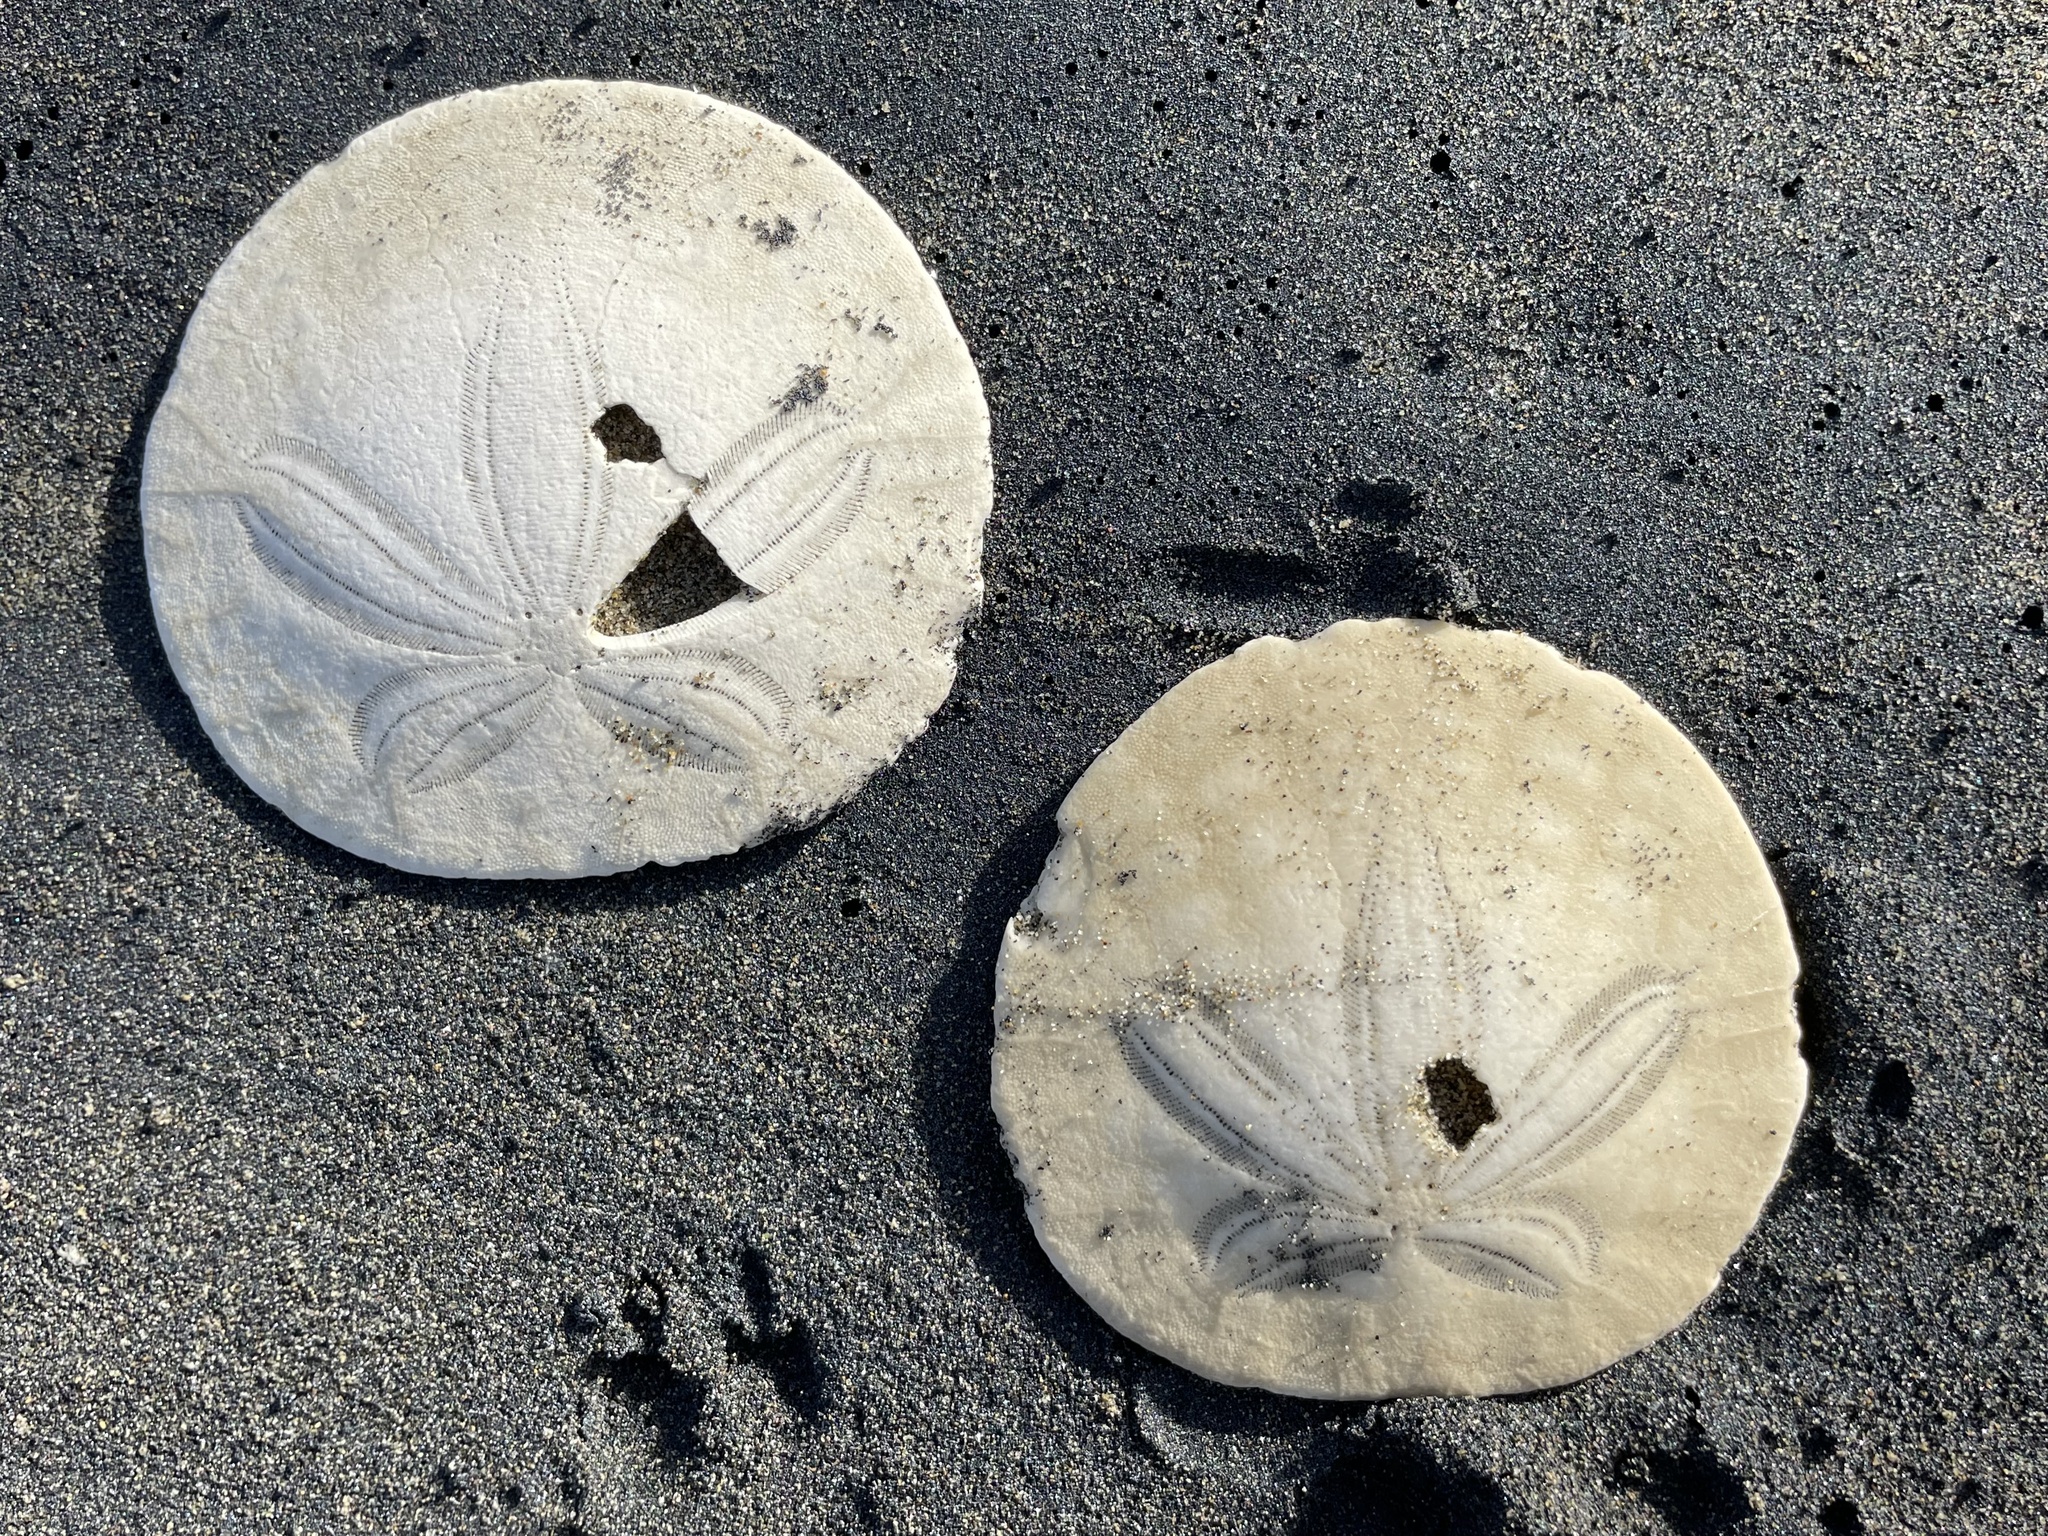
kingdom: Animalia
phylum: Echinodermata
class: Echinoidea
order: Echinolampadacea
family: Dendrasteridae
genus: Dendraster
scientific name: Dendraster excentricus
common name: Eccentric sand dollar sea urchin
